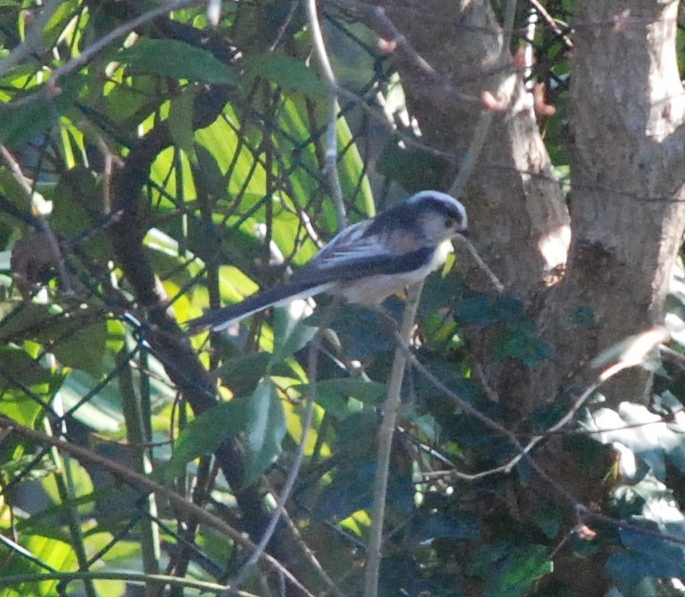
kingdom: Animalia
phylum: Chordata
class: Aves
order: Passeriformes
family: Aegithalidae
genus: Aegithalos
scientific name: Aegithalos caudatus
